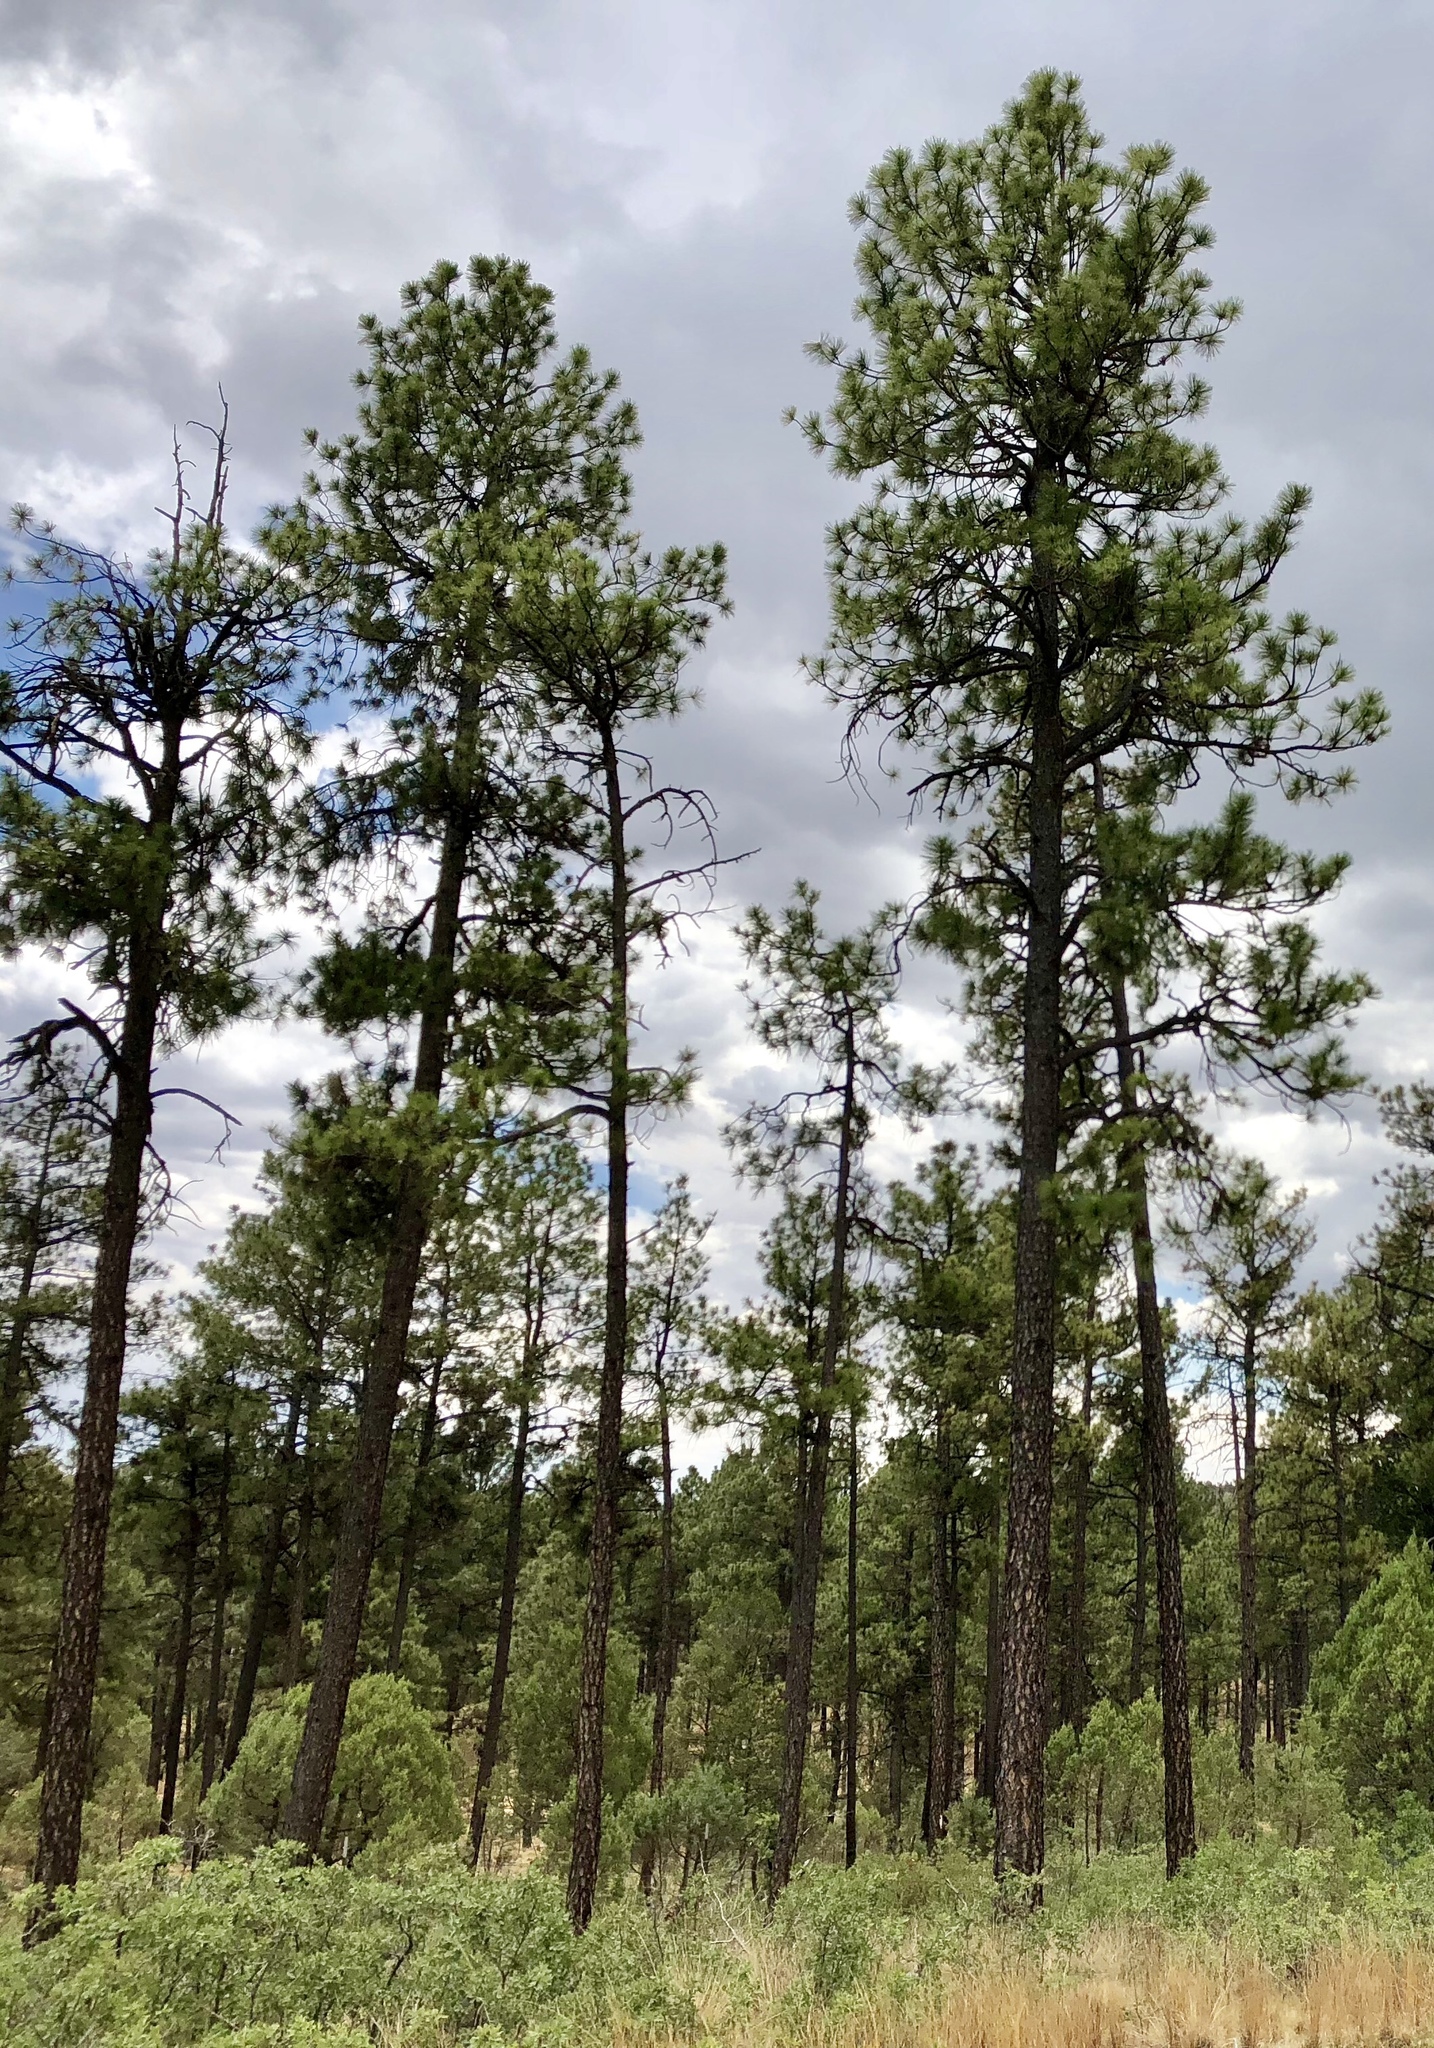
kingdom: Plantae
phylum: Tracheophyta
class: Pinopsida
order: Pinales
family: Pinaceae
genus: Pinus
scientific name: Pinus ponderosa
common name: Western yellow-pine
